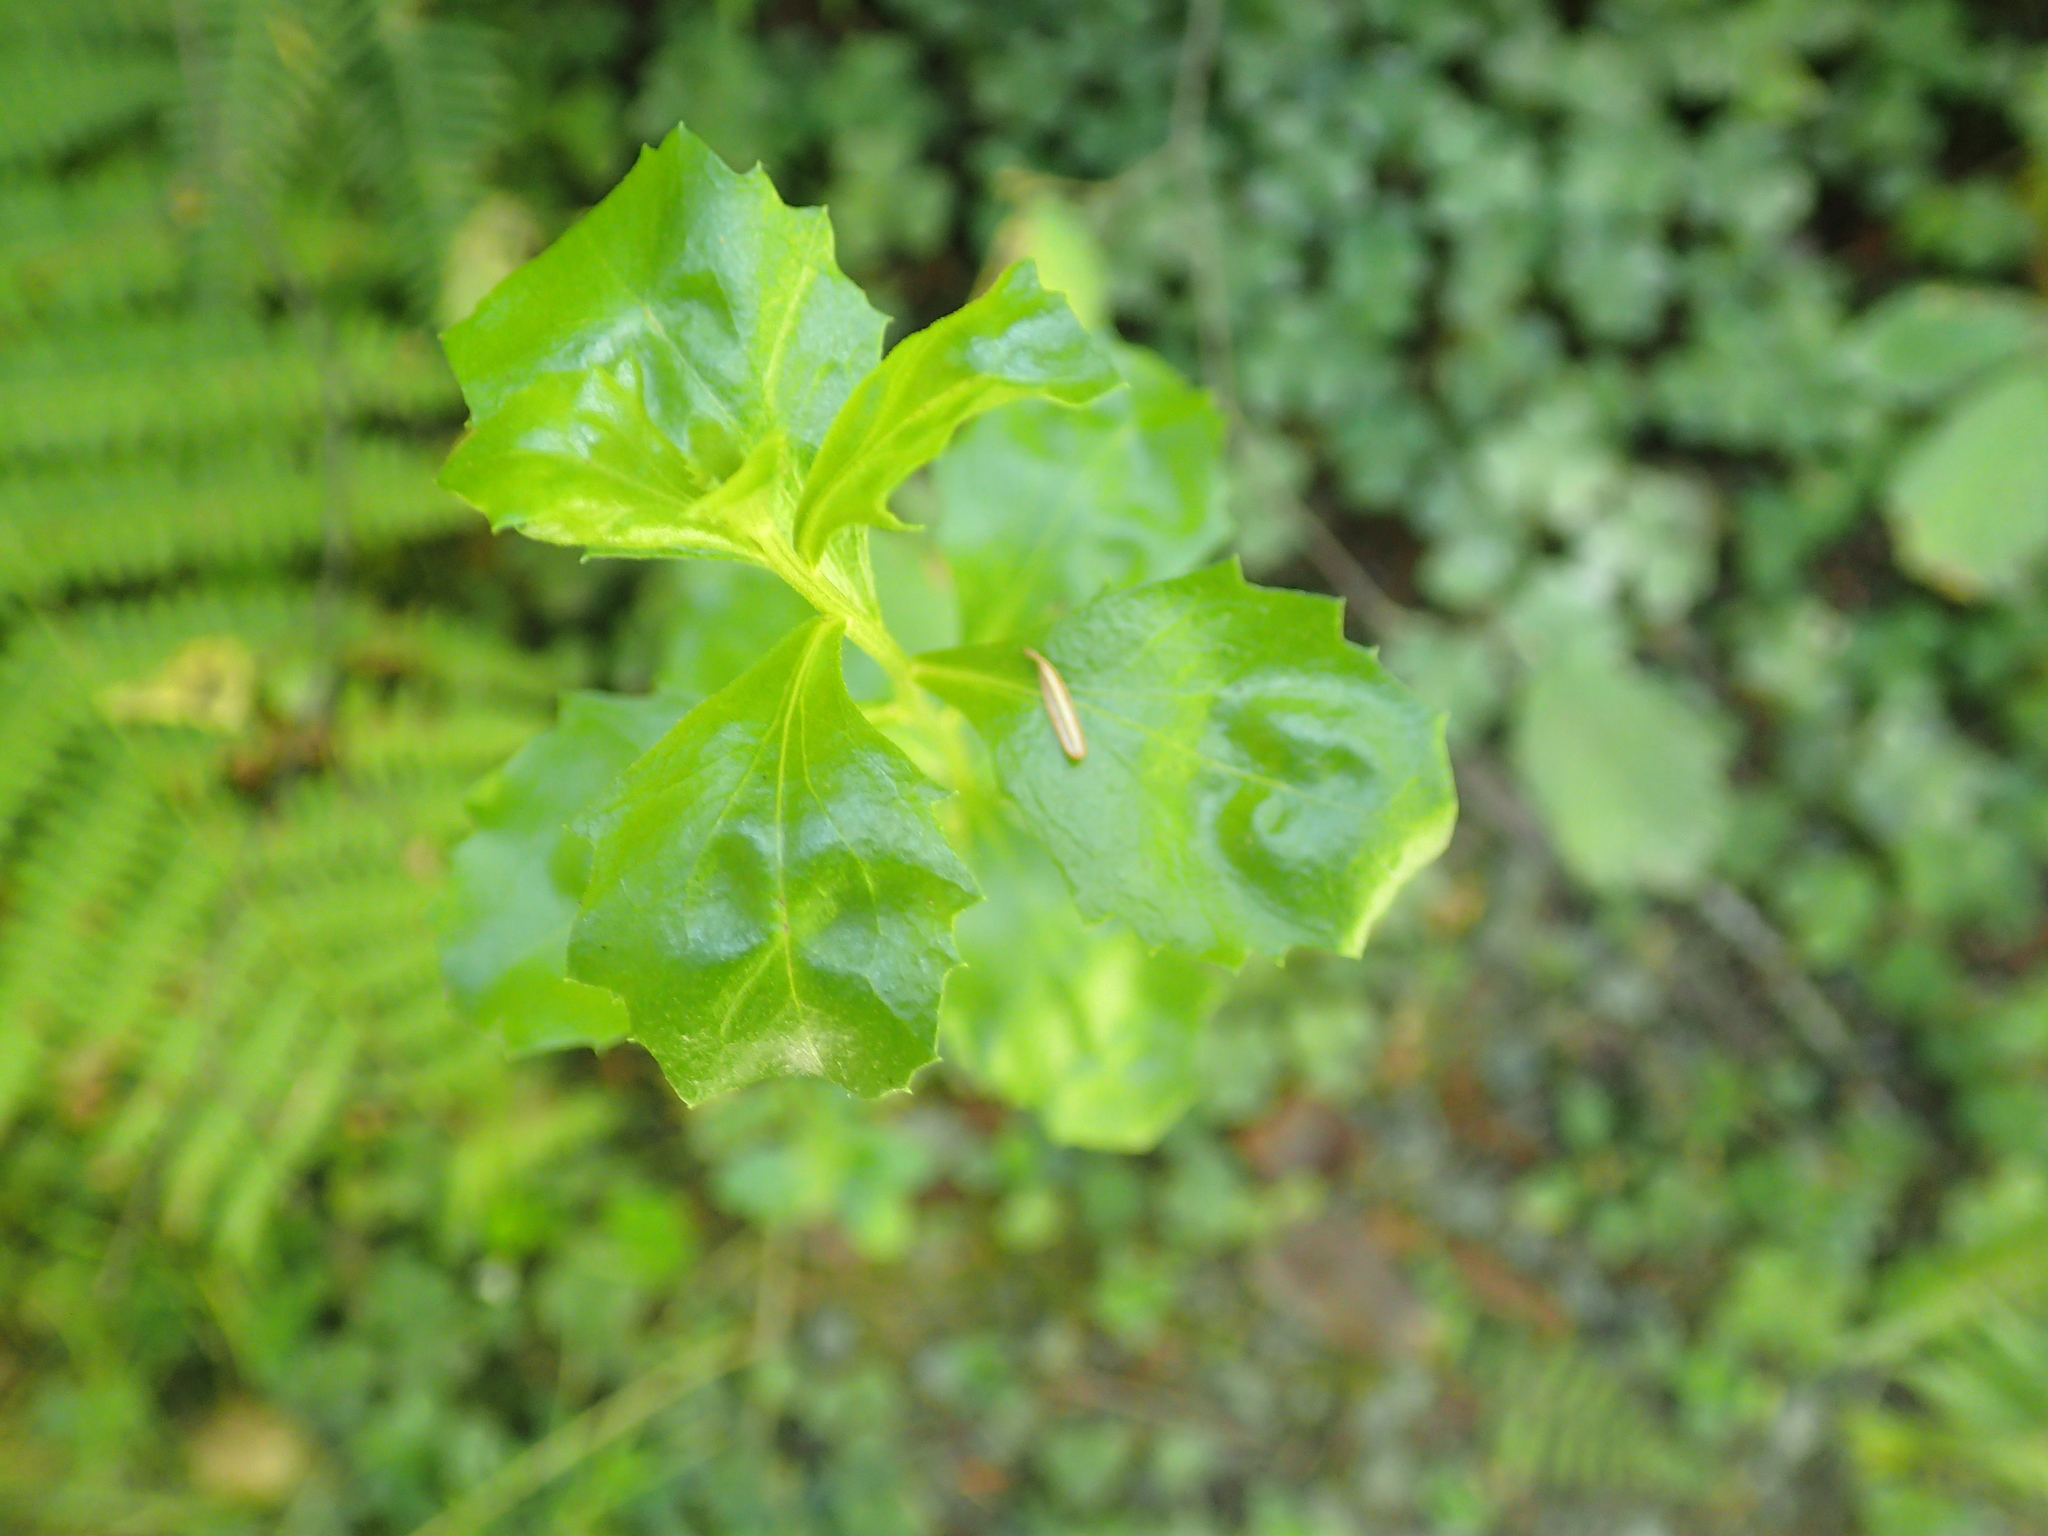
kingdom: Plantae
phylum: Tracheophyta
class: Magnoliopsida
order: Asterales
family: Asteraceae
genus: Baccharis
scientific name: Baccharis pilularis
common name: Coyotebrush
